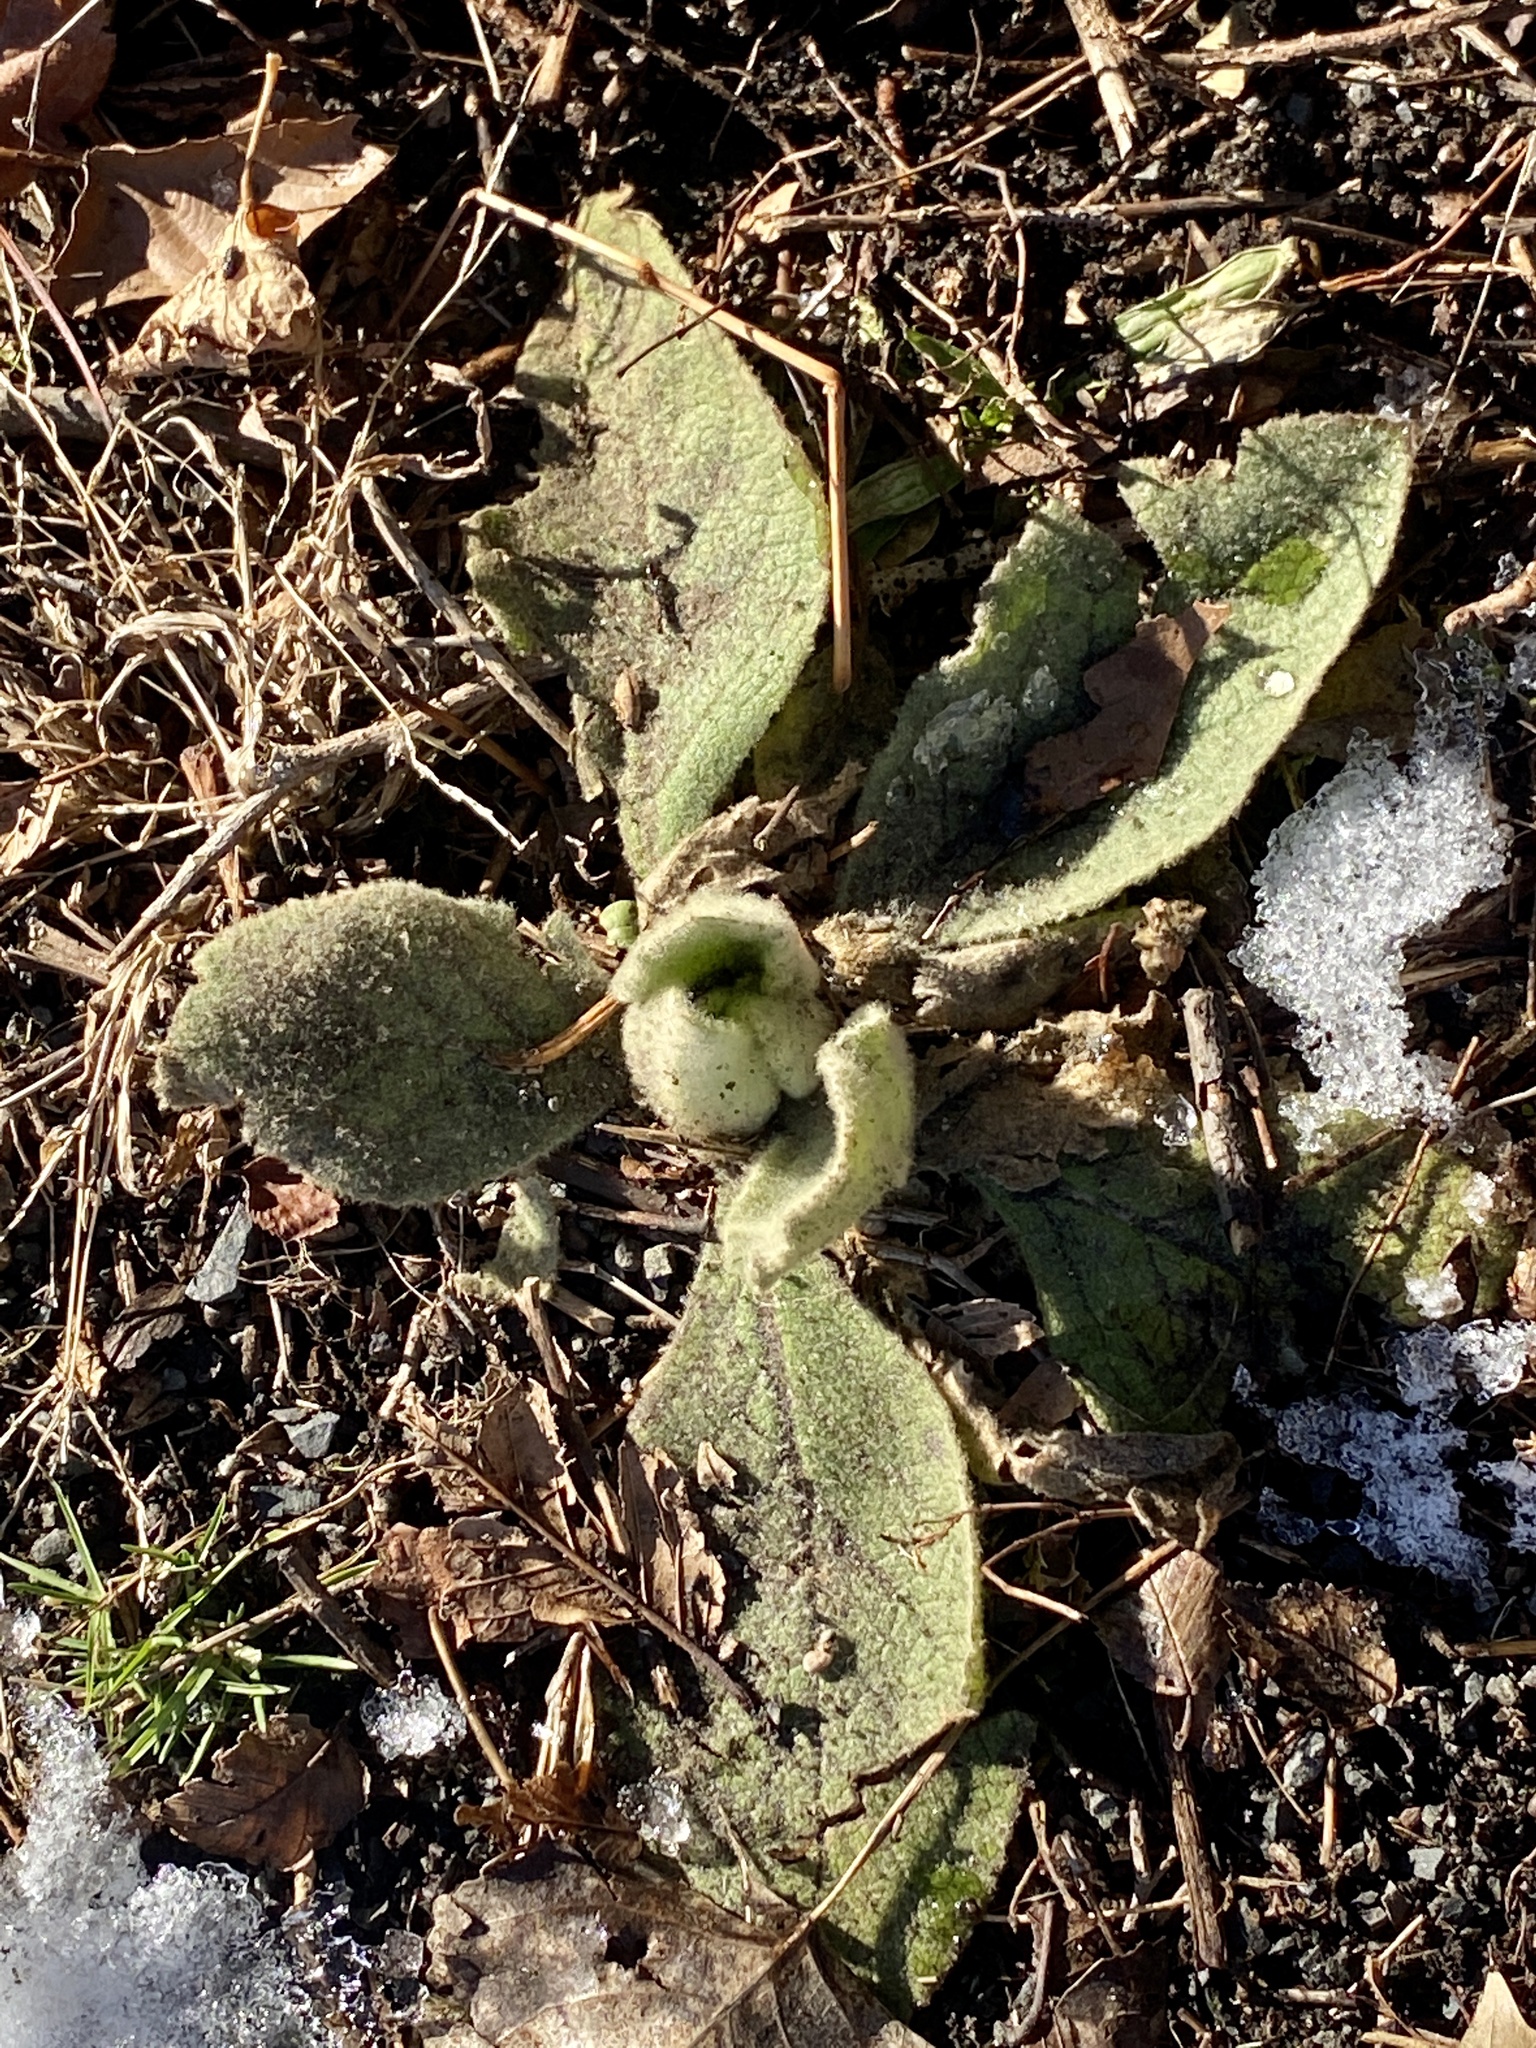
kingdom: Plantae
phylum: Tracheophyta
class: Magnoliopsida
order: Lamiales
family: Scrophulariaceae
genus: Verbascum
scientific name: Verbascum thapsus
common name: Common mullein
